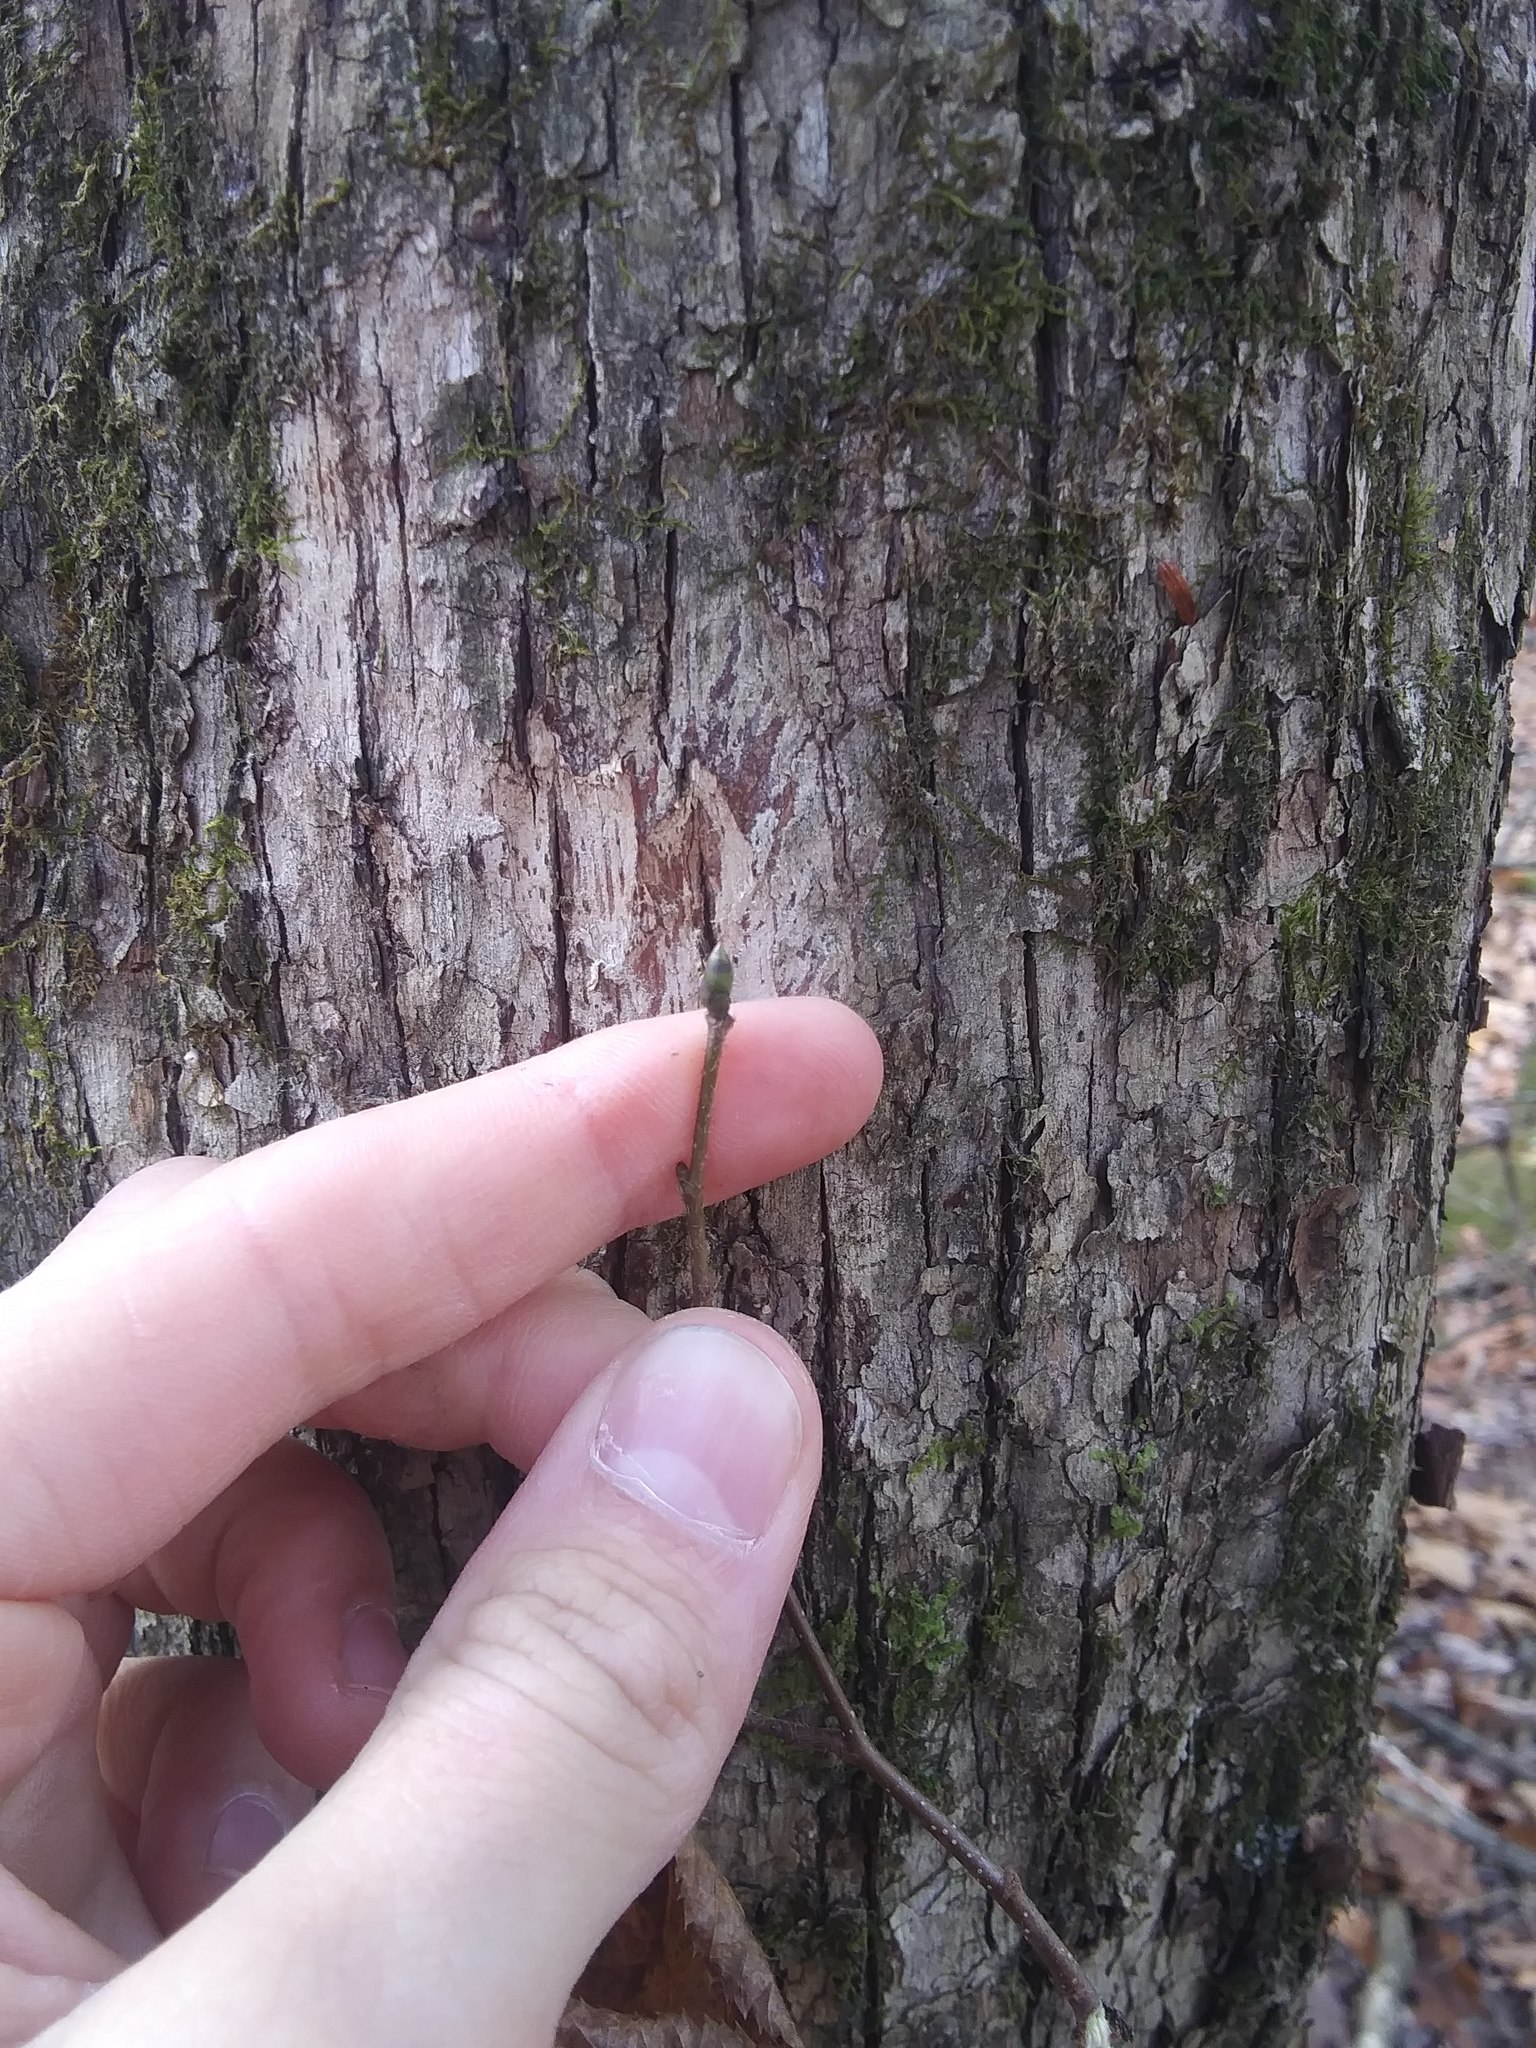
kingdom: Plantae
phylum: Tracheophyta
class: Magnoliopsida
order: Fagales
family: Betulaceae
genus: Ostrya
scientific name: Ostrya virginiana
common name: Ironwood
